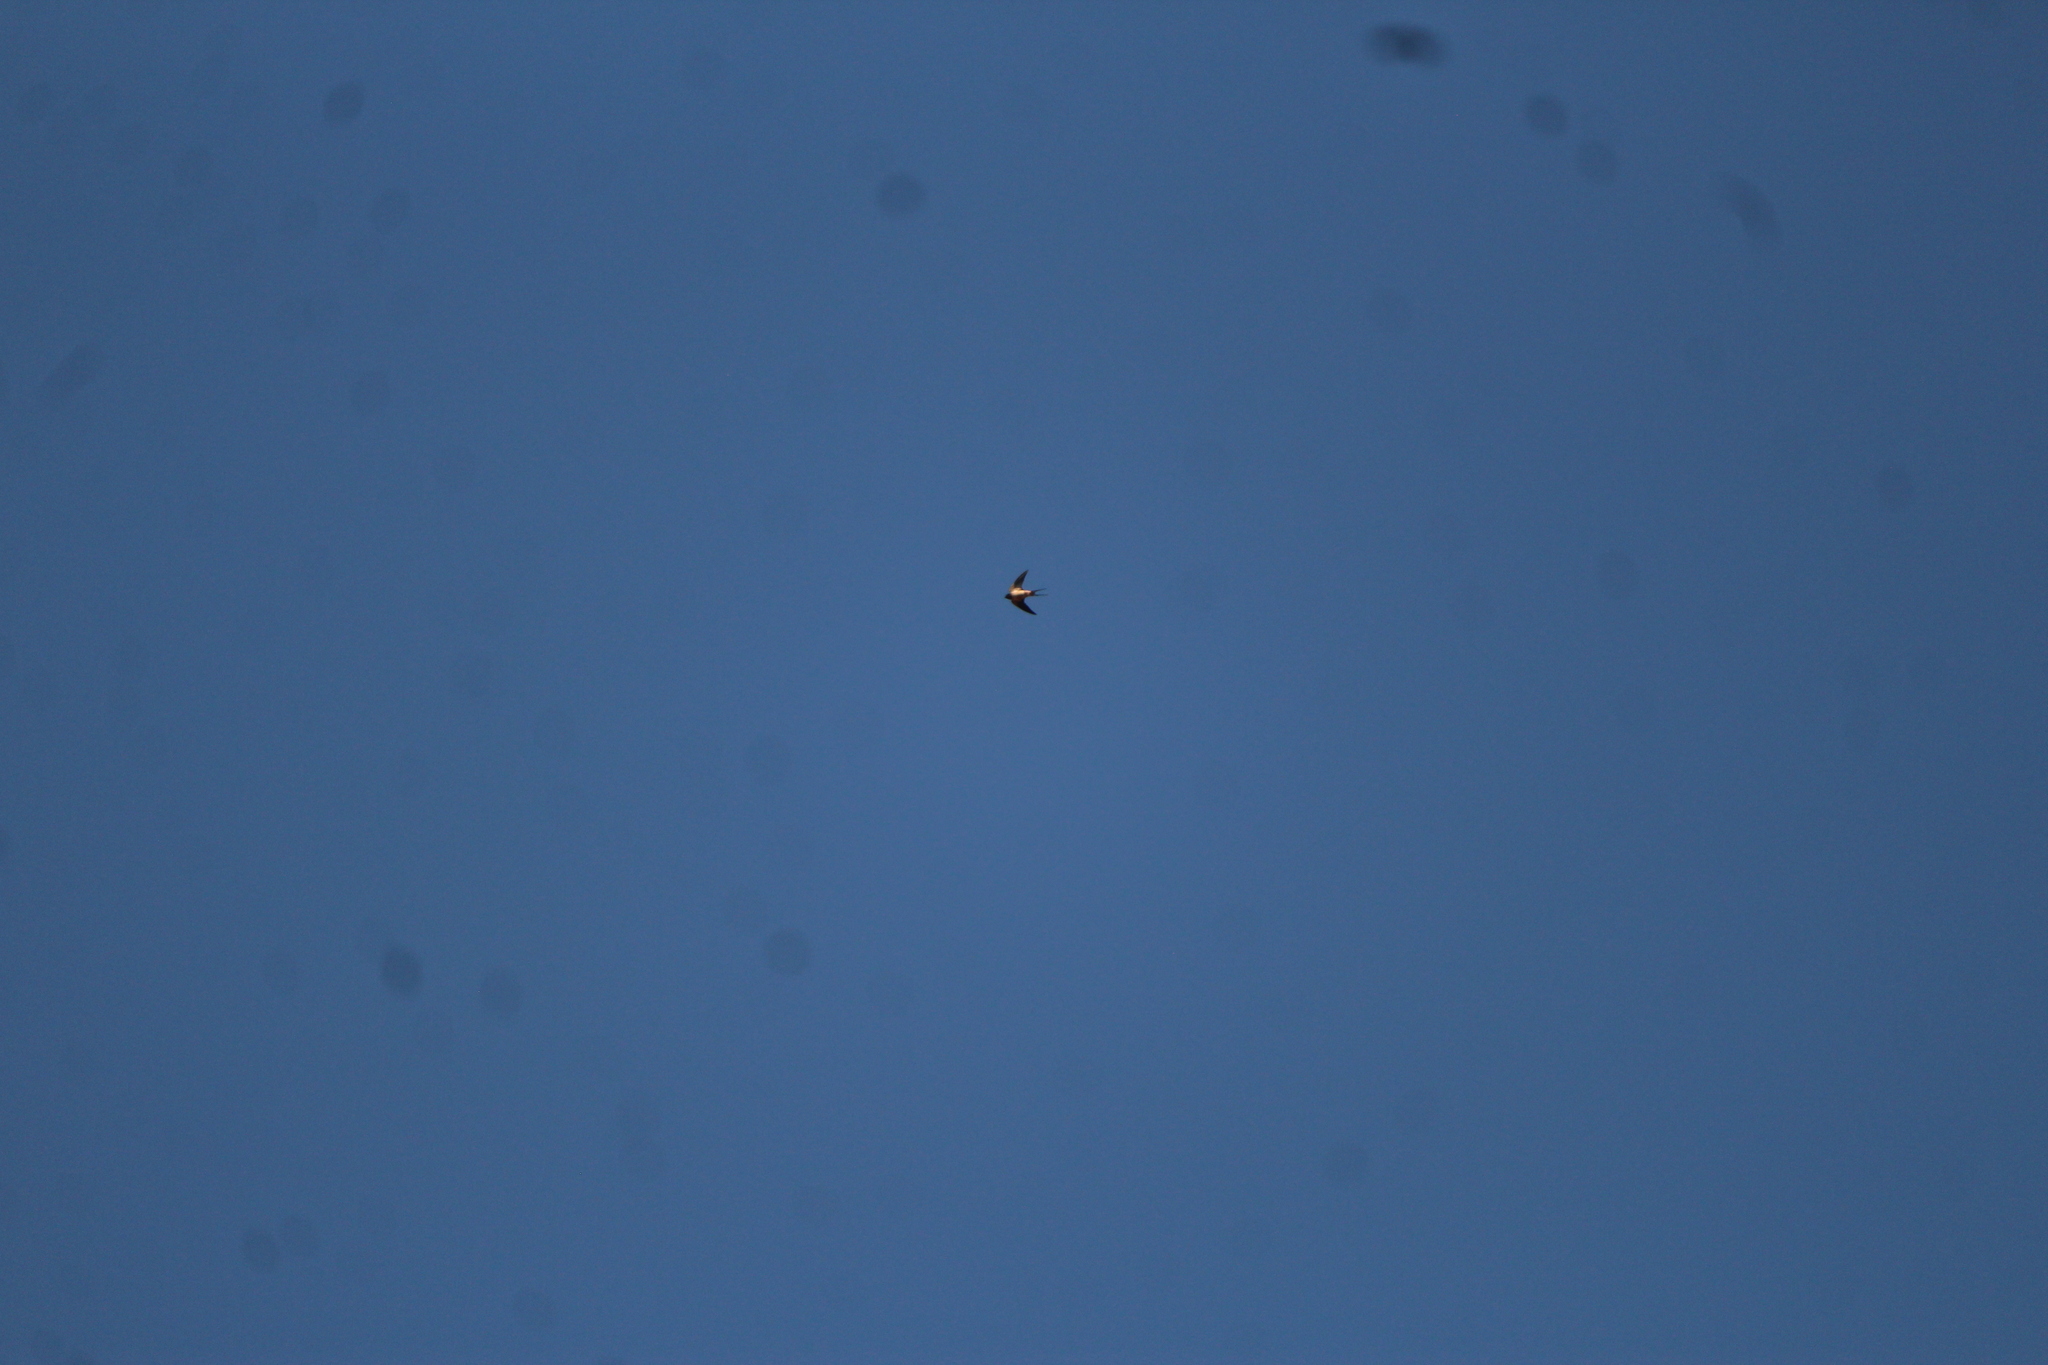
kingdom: Animalia
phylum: Chordata
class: Aves
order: Passeriformes
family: Hirundinidae
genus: Hirundo
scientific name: Hirundo rustica
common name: Barn swallow
